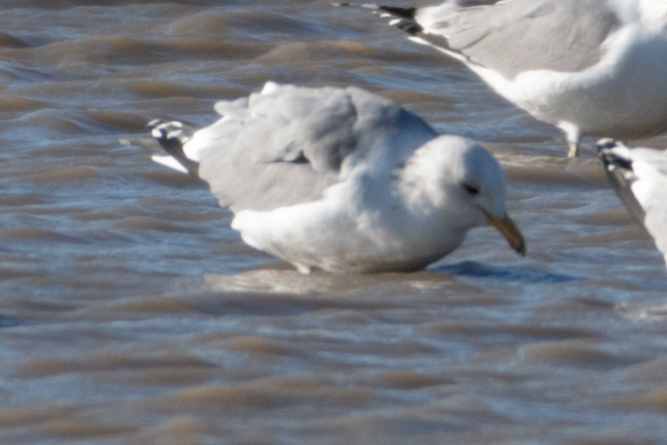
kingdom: Animalia
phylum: Chordata
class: Aves
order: Charadriiformes
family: Laridae
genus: Larus
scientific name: Larus californicus
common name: California gull
